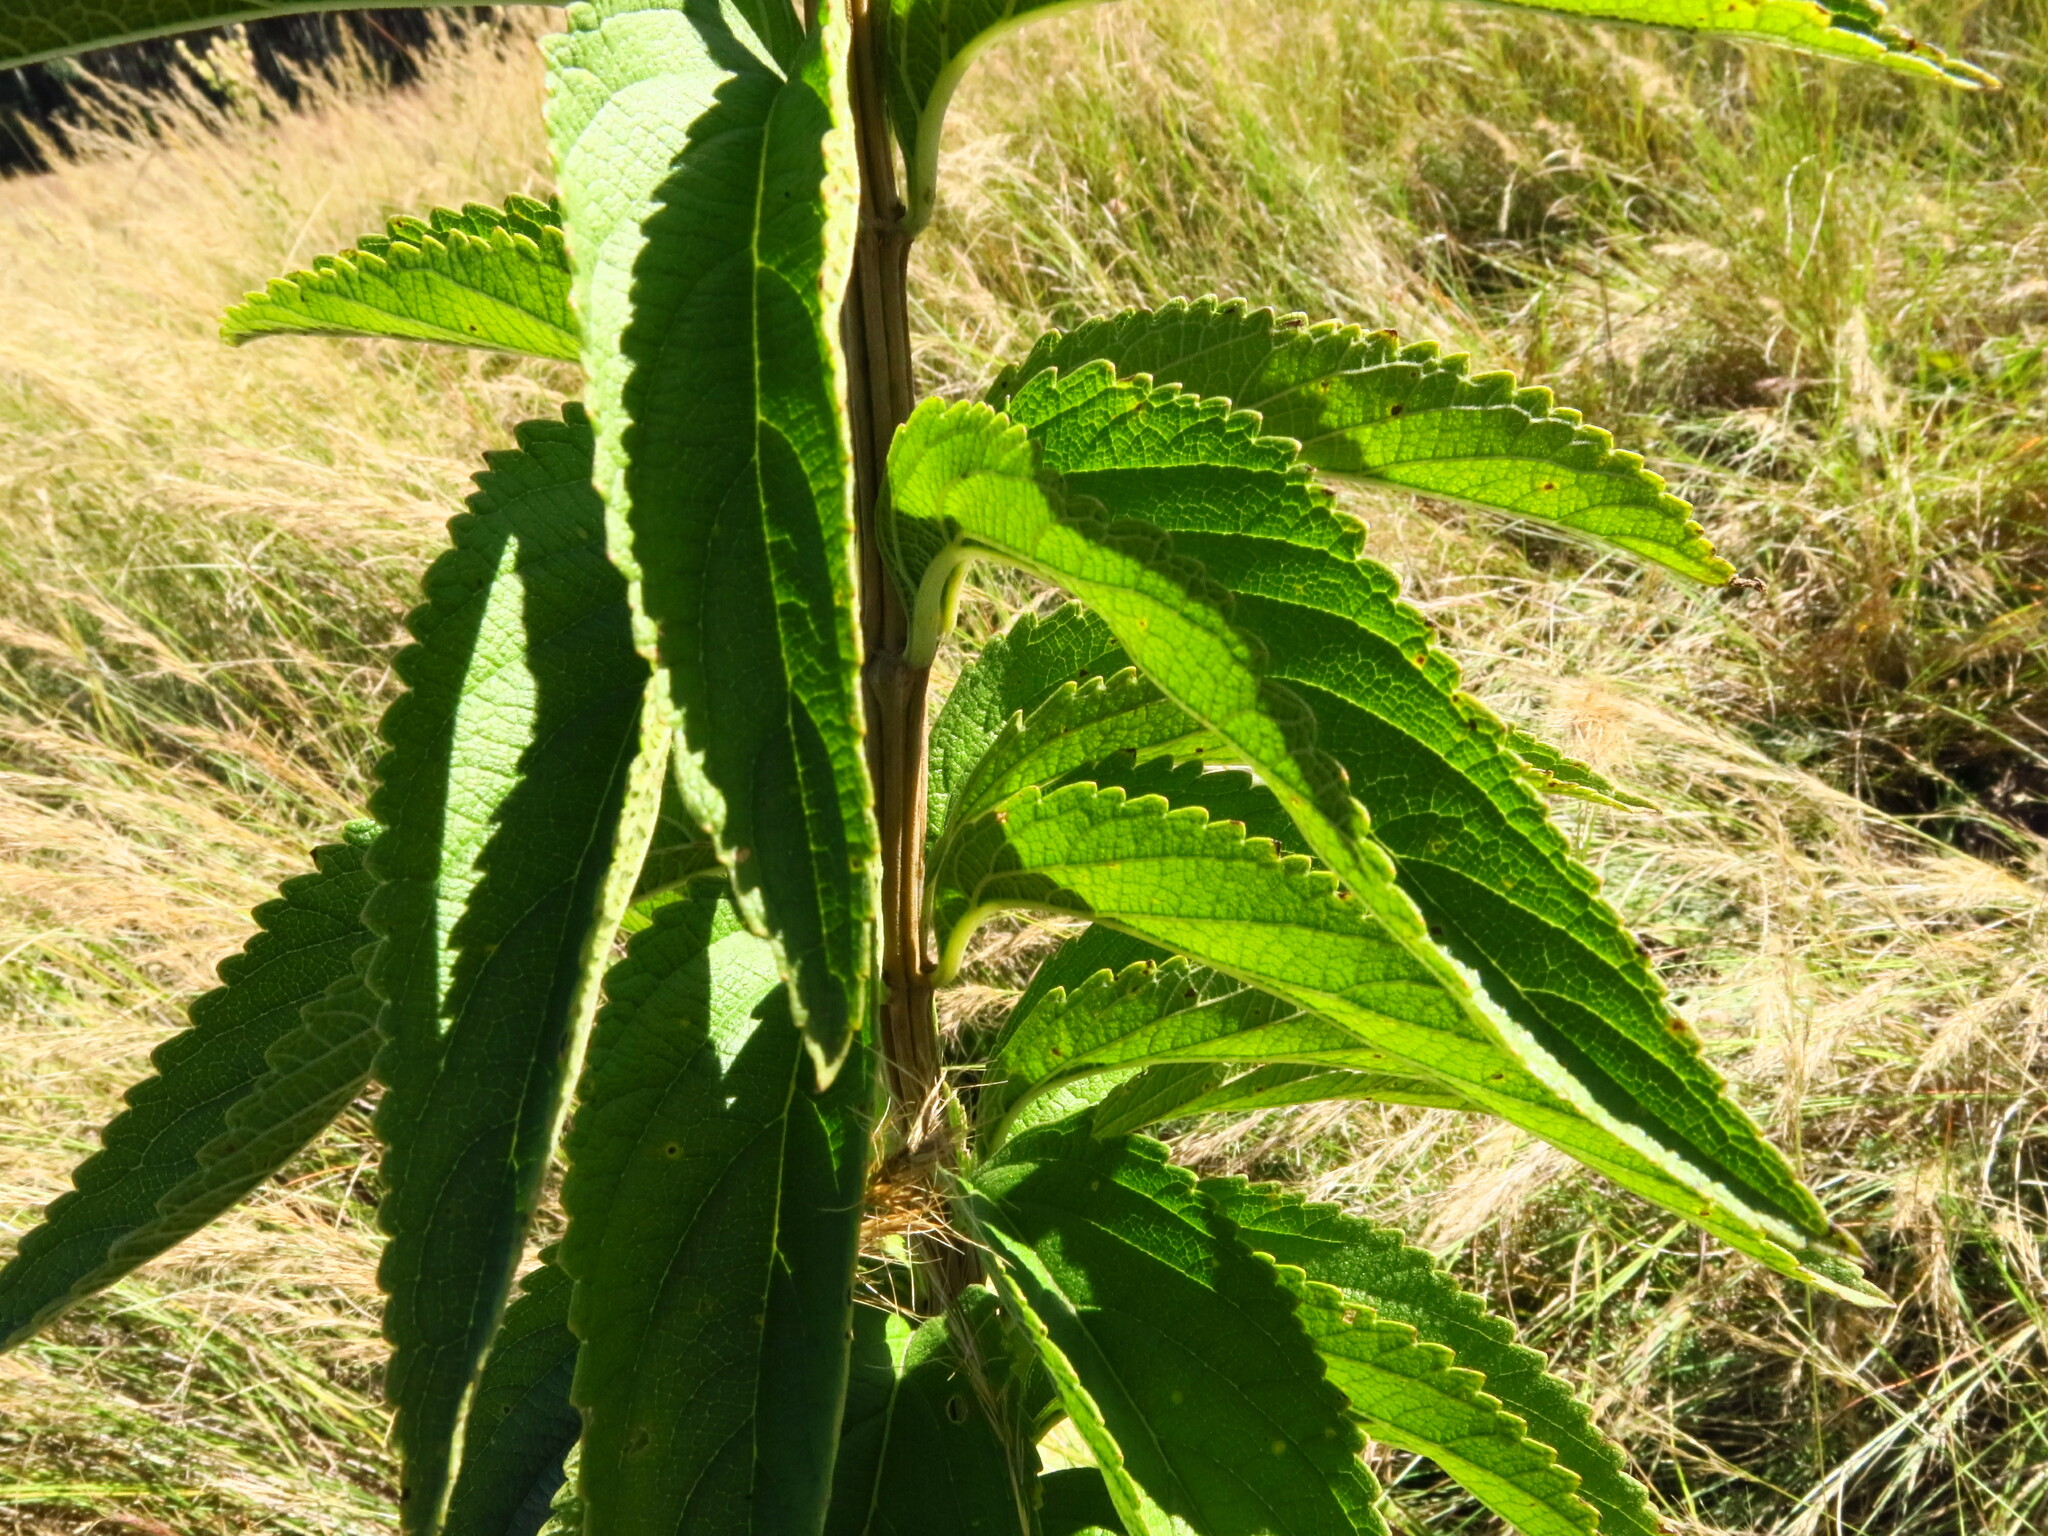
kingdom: Plantae
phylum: Tracheophyta
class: Magnoliopsida
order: Lamiales
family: Lamiaceae
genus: Coleus
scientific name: Coleus calycinus
